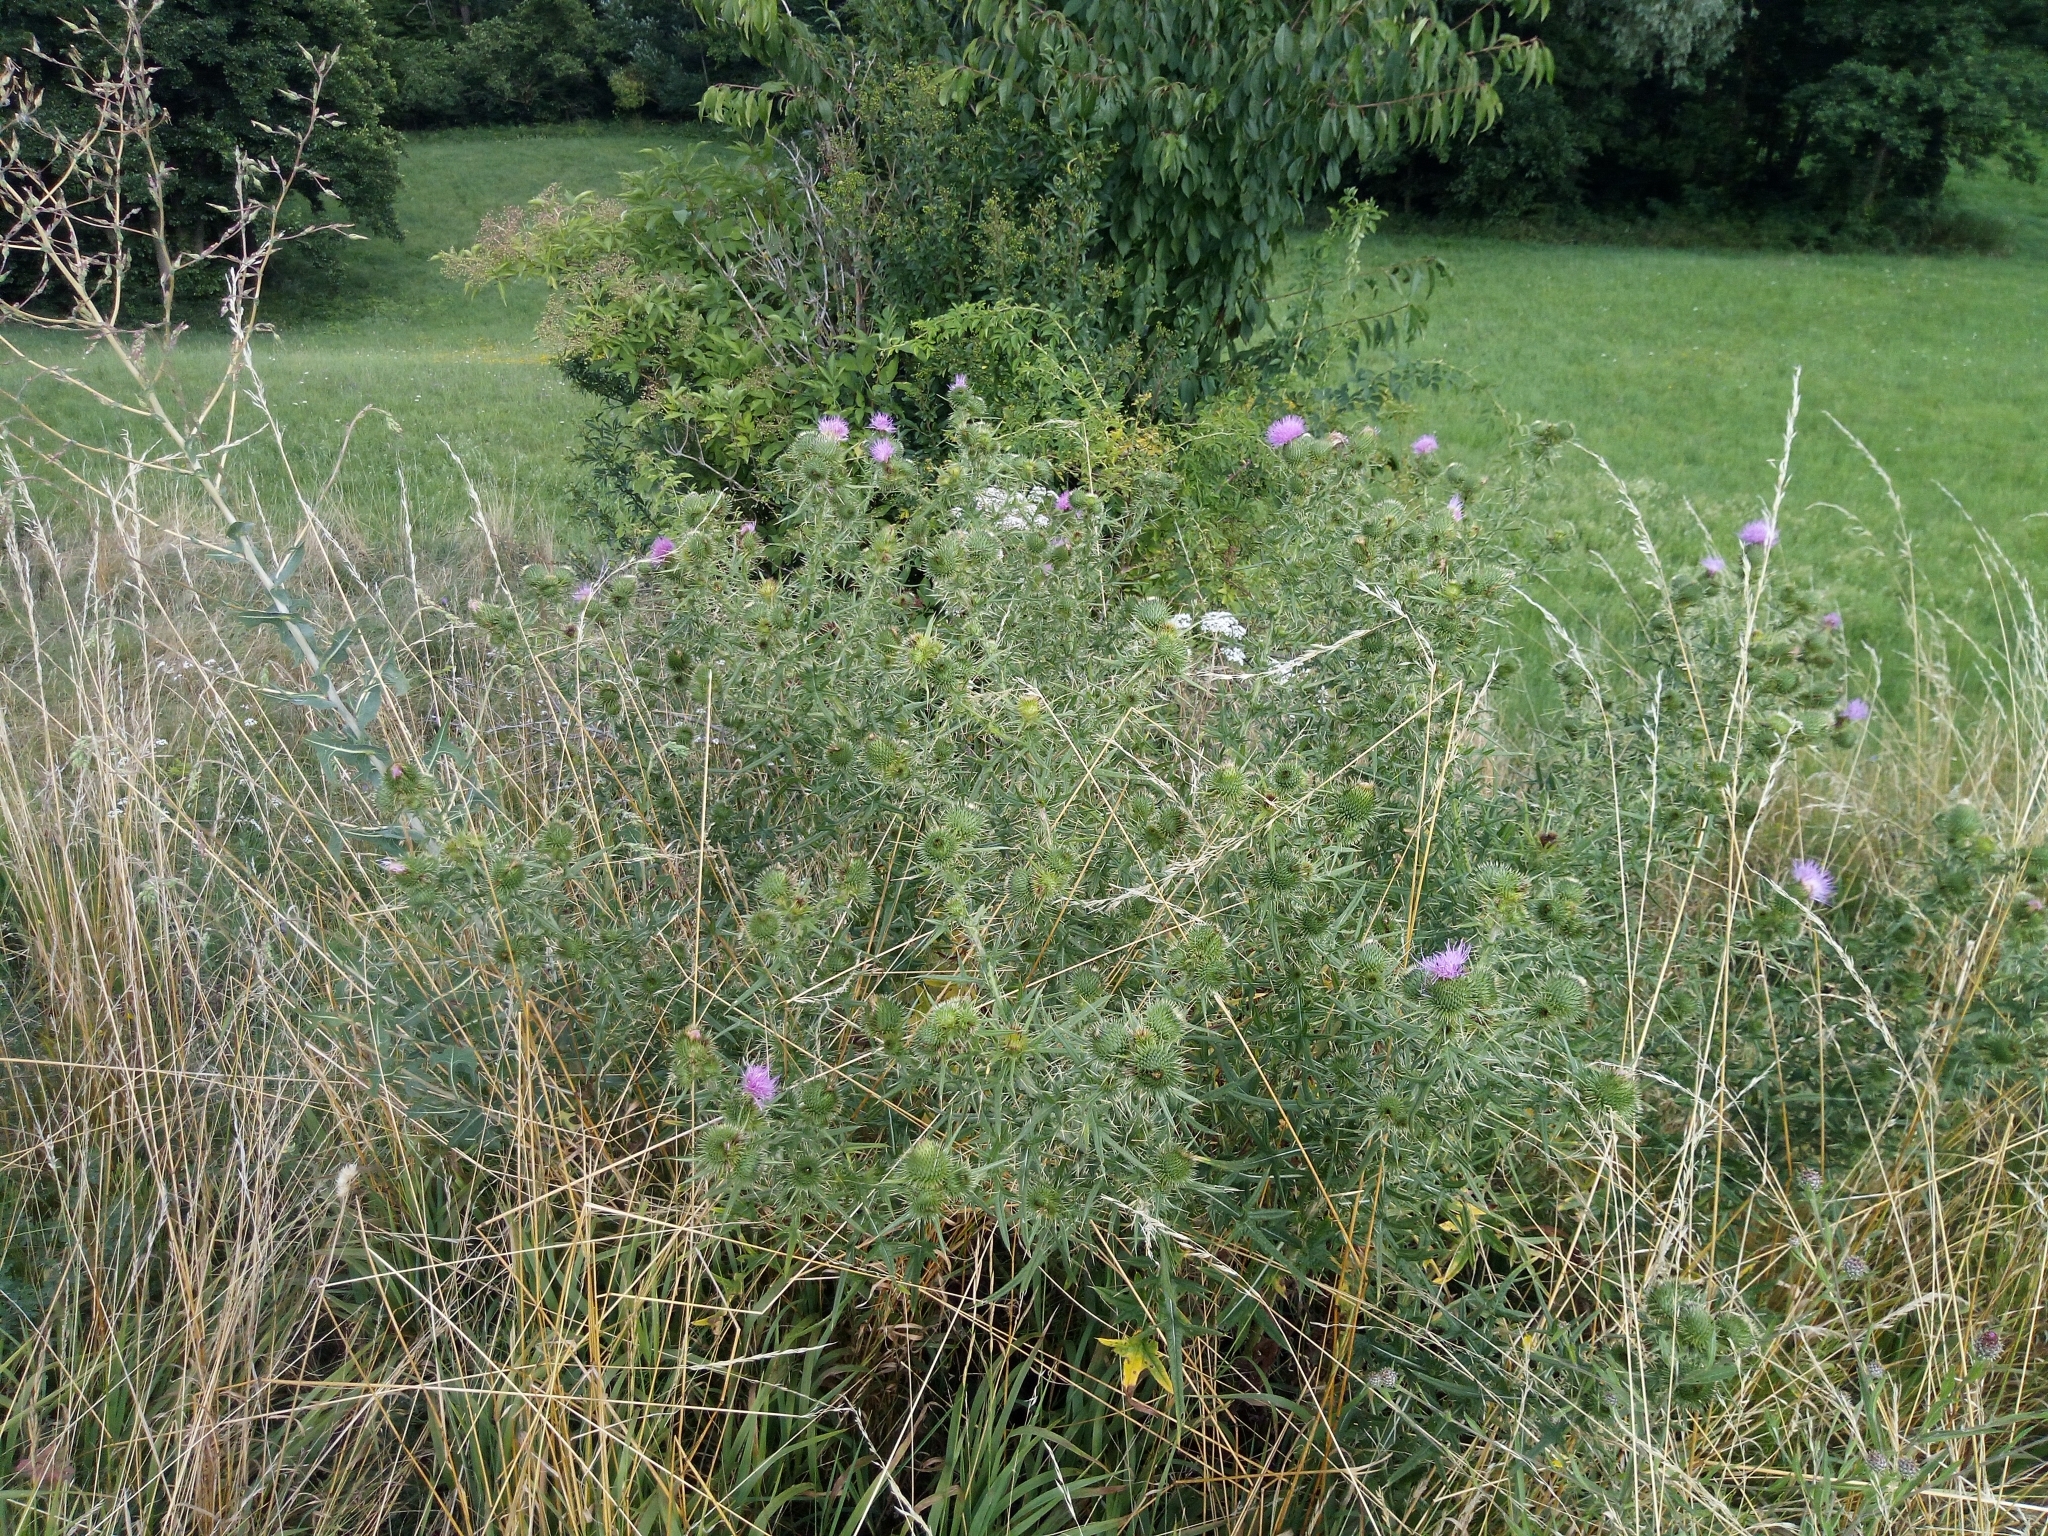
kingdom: Plantae
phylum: Tracheophyta
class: Magnoliopsida
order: Asterales
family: Asteraceae
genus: Carduus
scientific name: Carduus acanthoides
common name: Plumeless thistle
